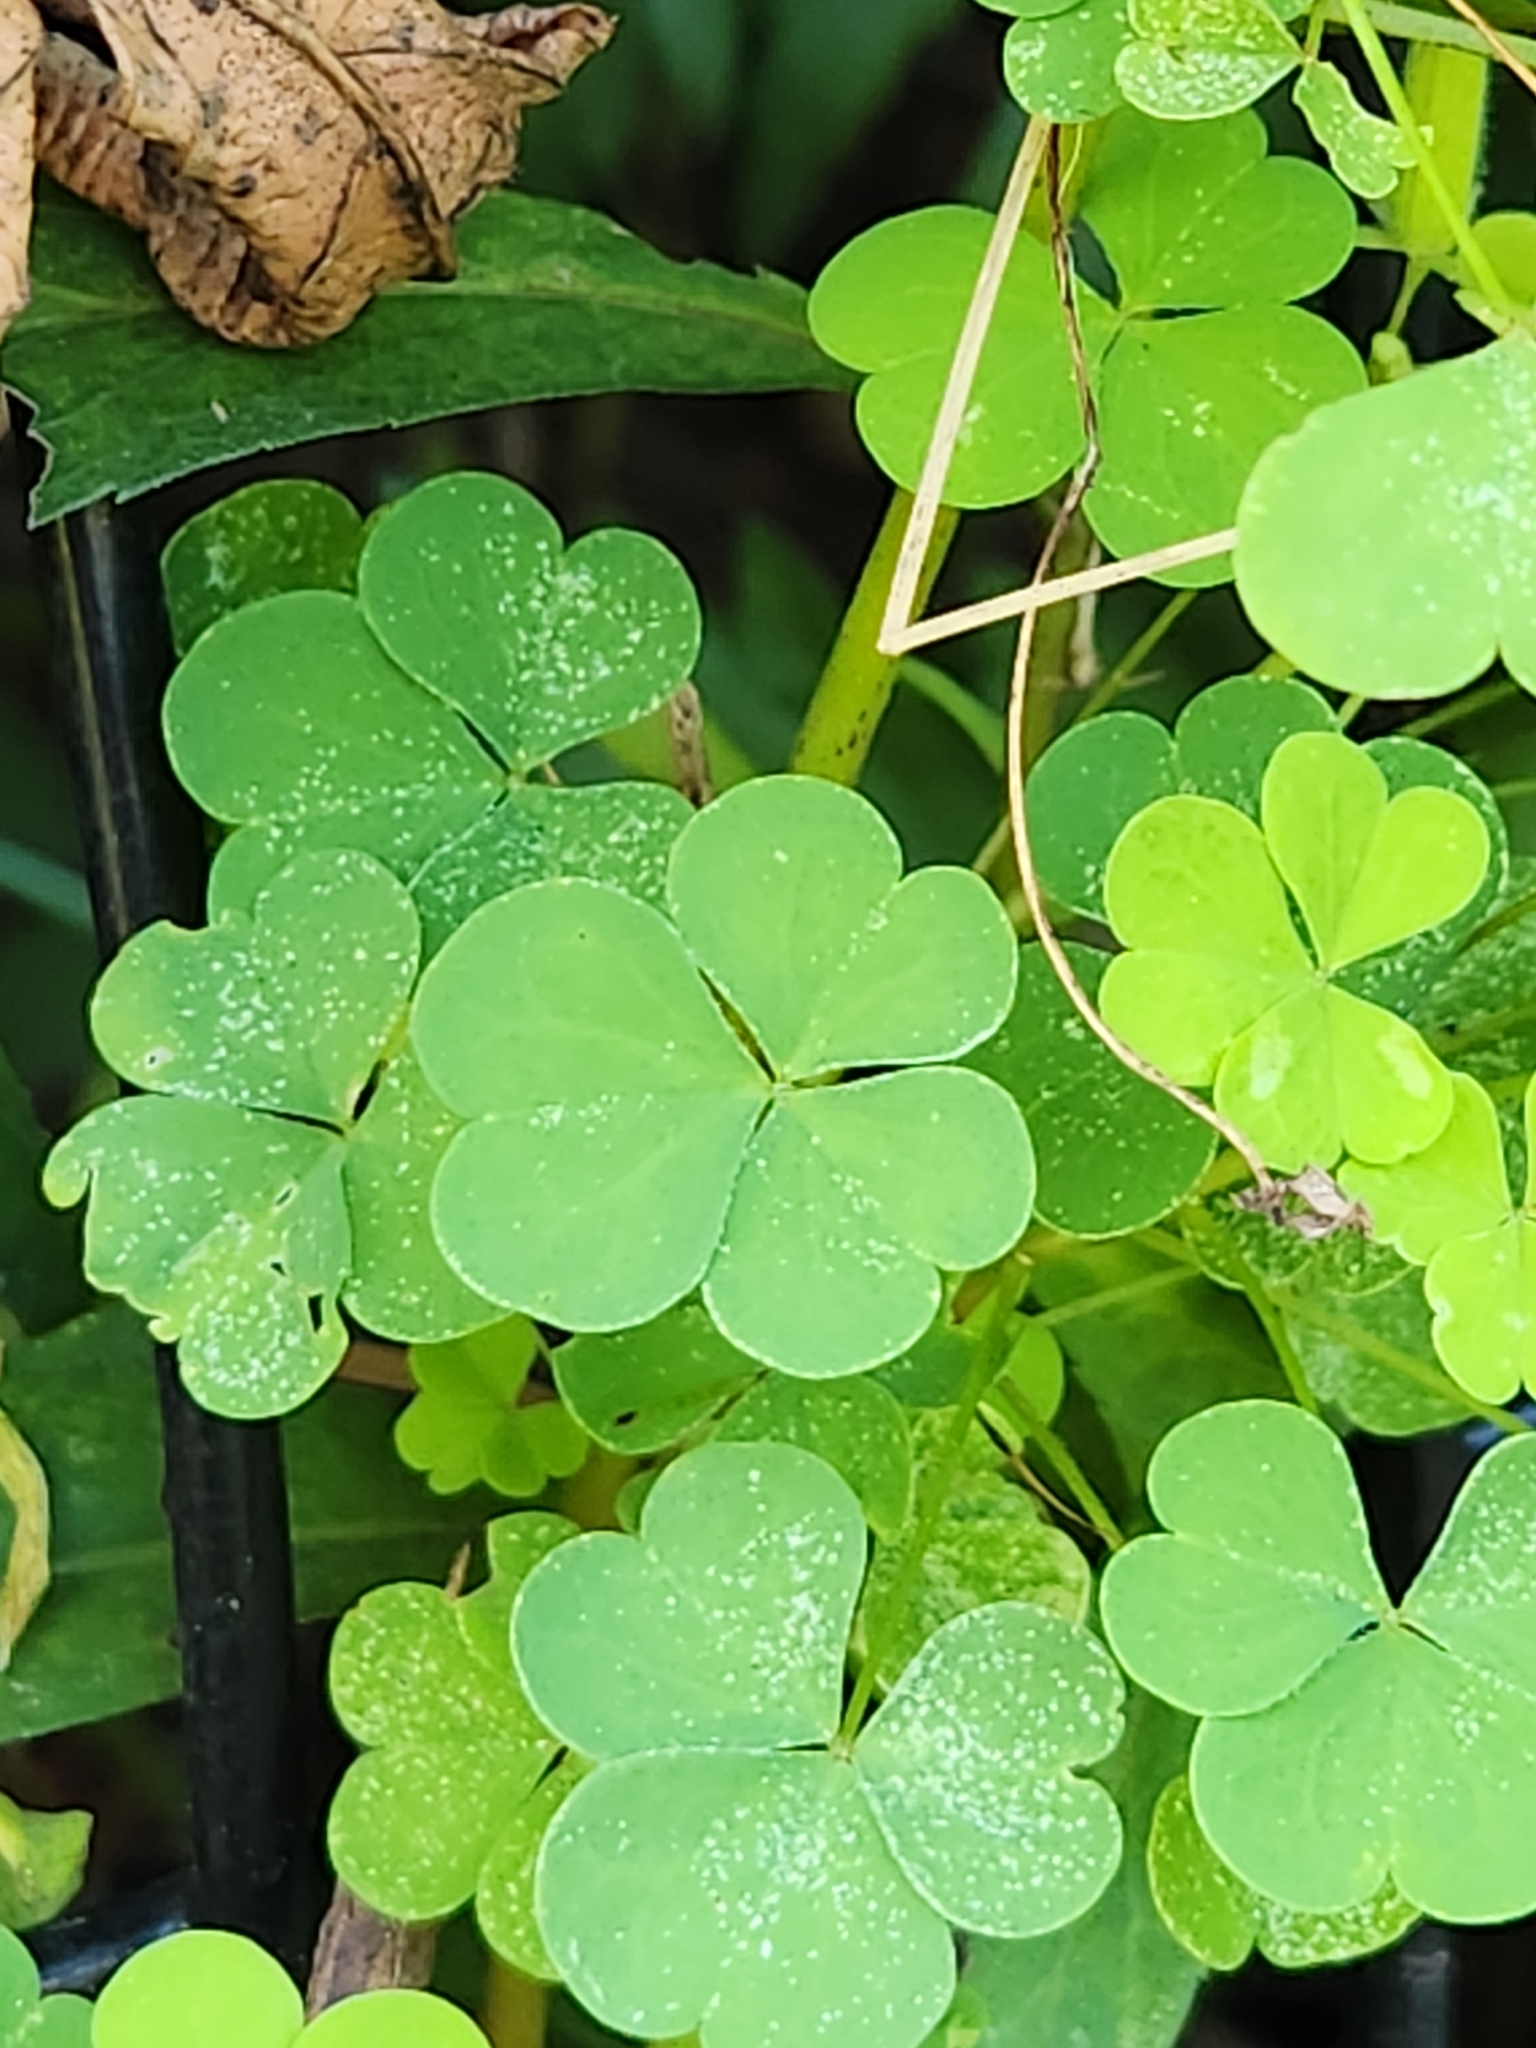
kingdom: Plantae
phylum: Tracheophyta
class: Magnoliopsida
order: Oxalidales
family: Oxalidaceae
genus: Oxalis
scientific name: Oxalis stricta
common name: Upright yellow-sorrel
